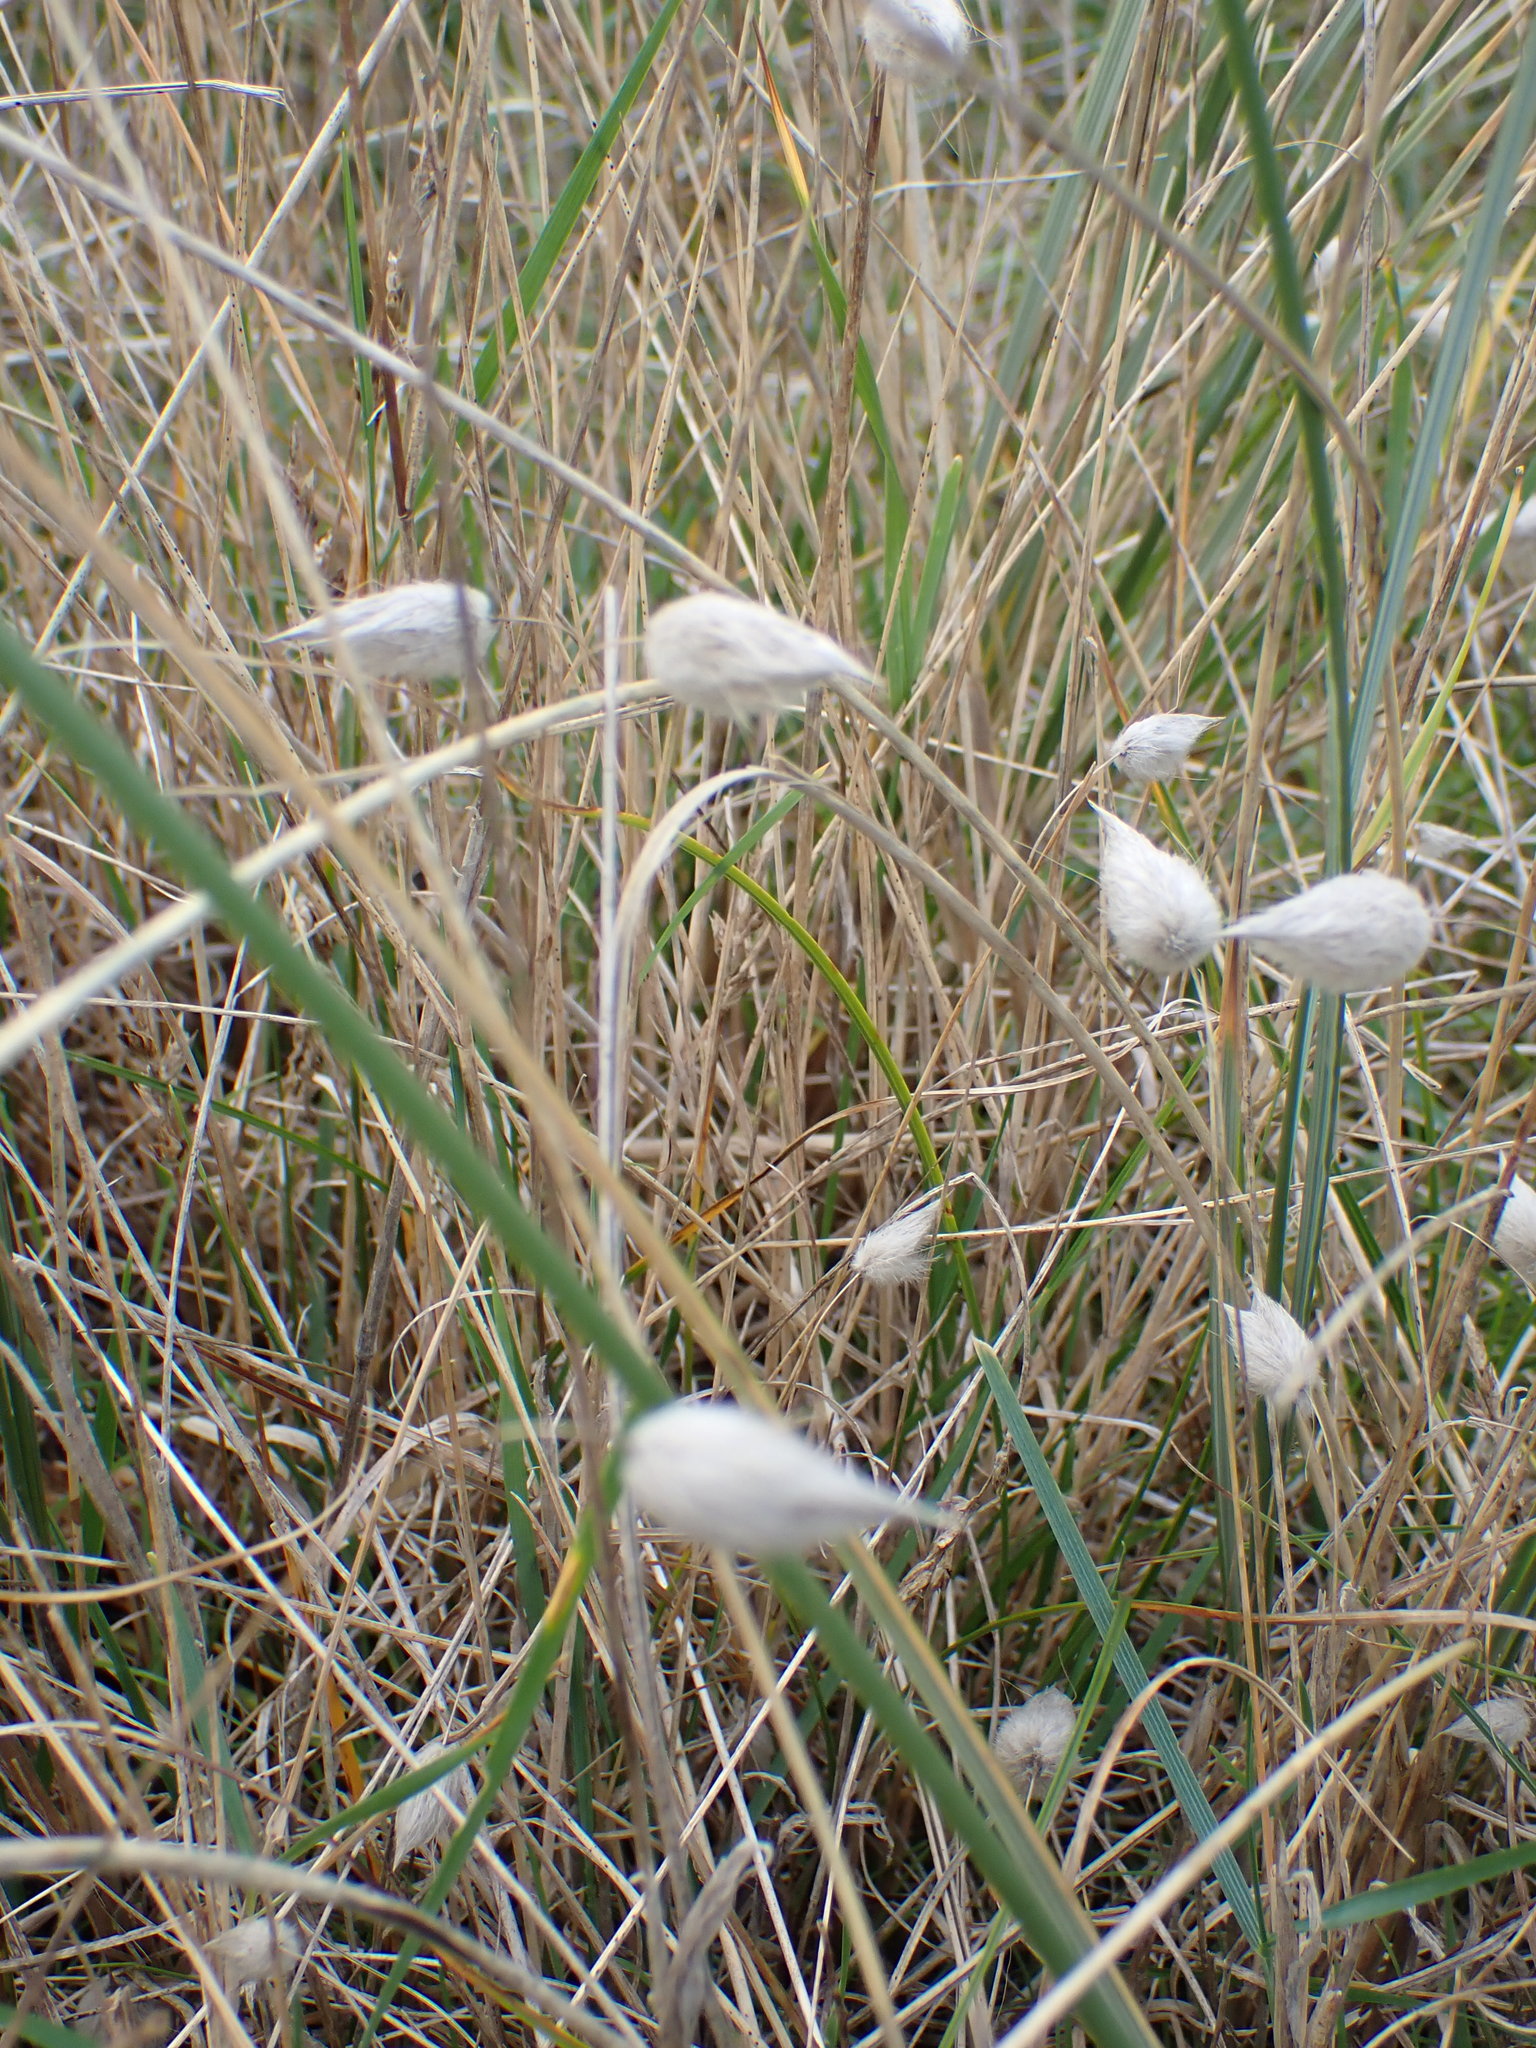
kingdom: Plantae
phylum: Tracheophyta
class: Liliopsida
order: Poales
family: Poaceae
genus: Lagurus
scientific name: Lagurus ovatus
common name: Hare's-tail
